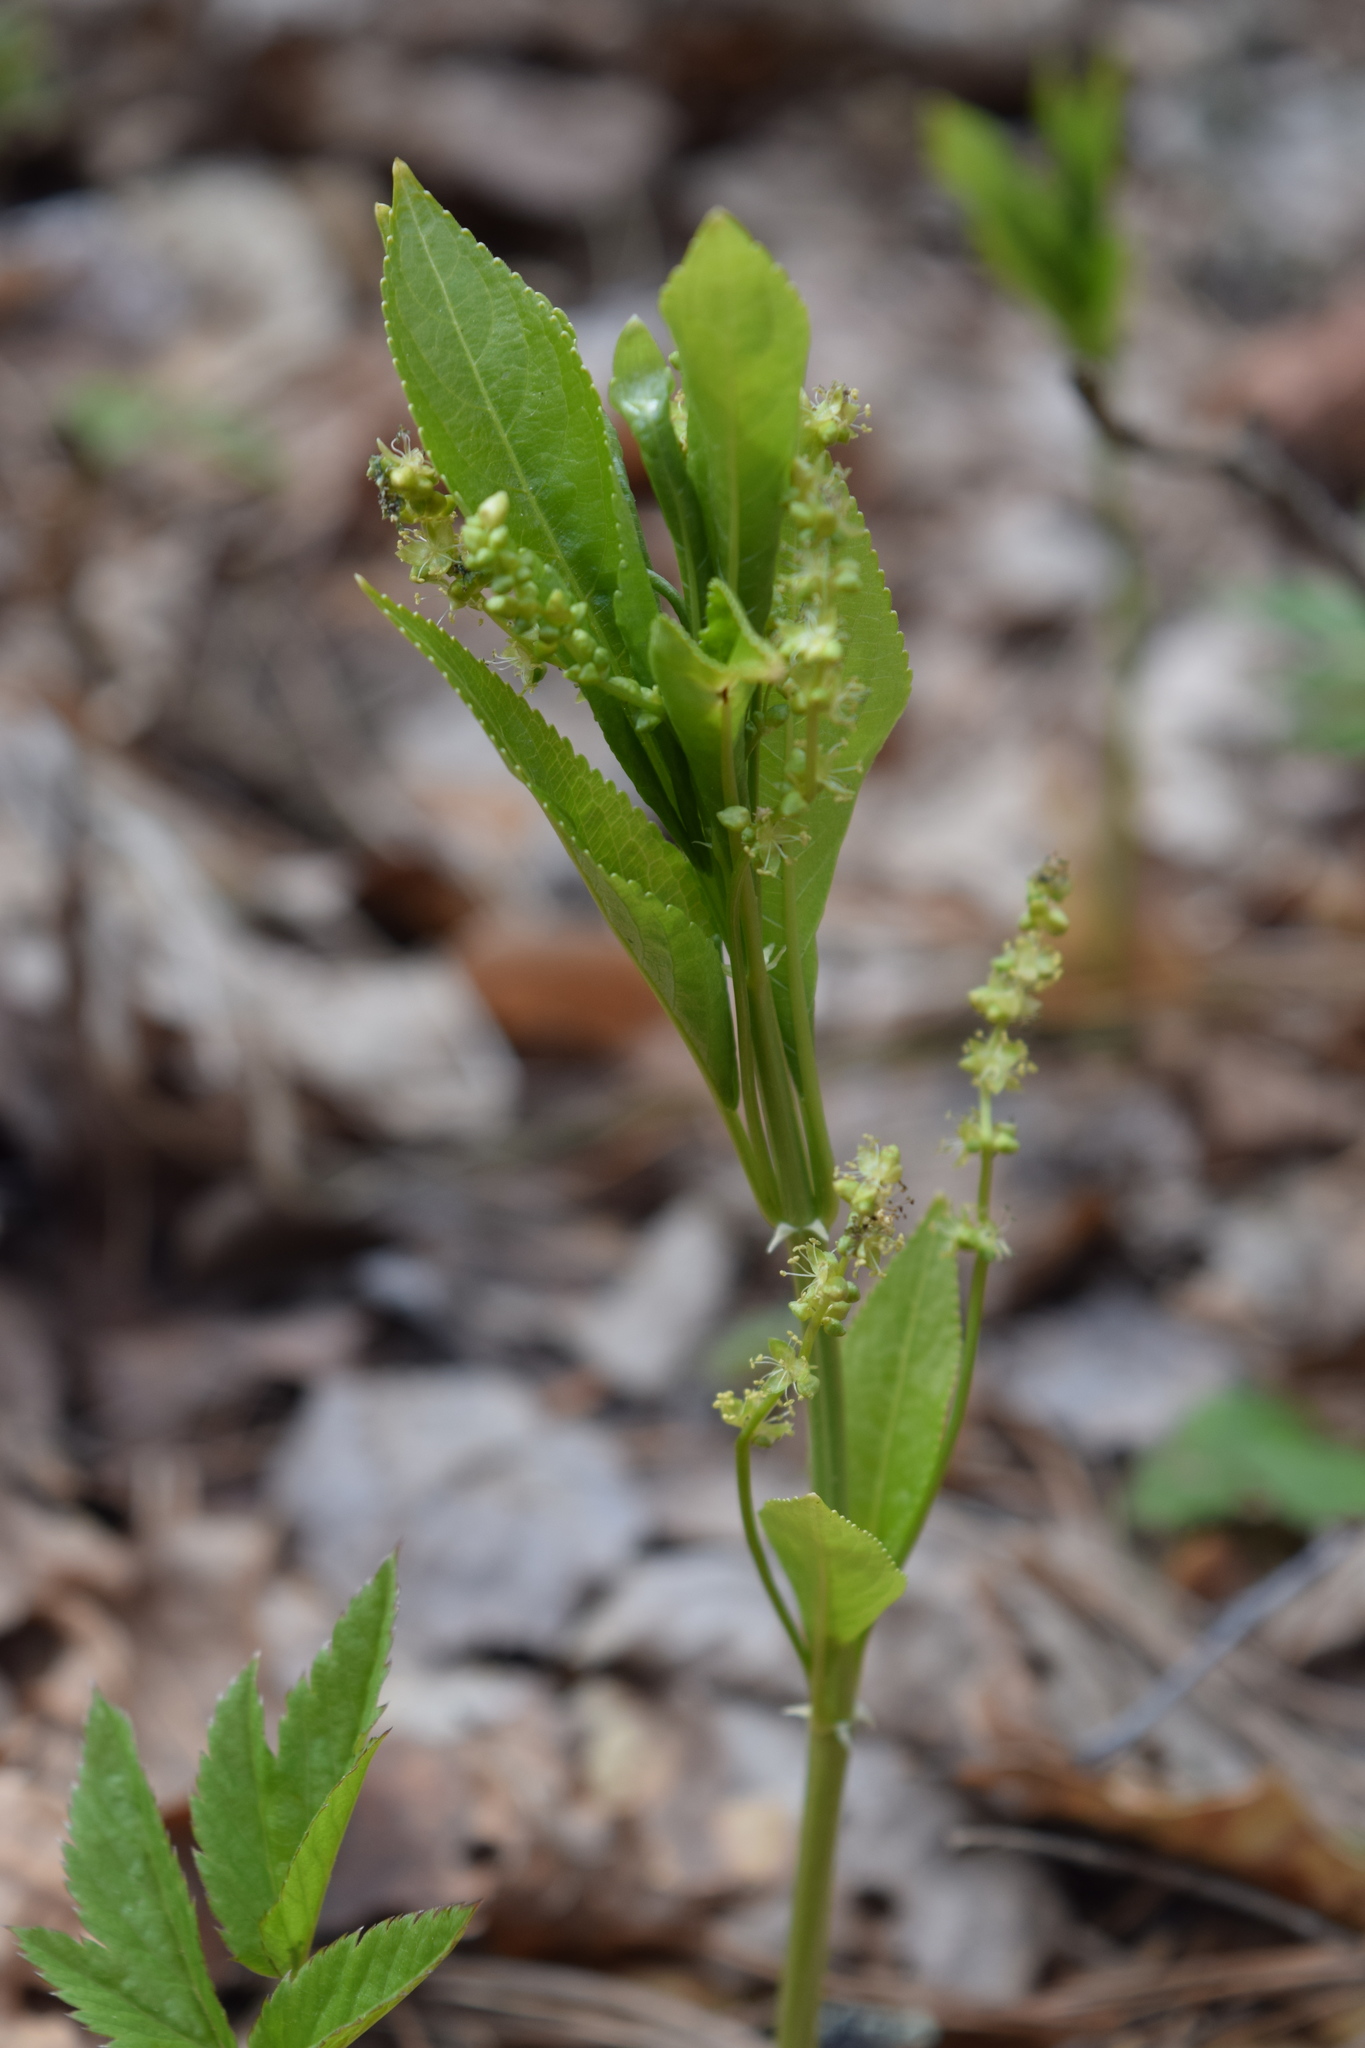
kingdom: Plantae
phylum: Tracheophyta
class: Magnoliopsida
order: Malpighiales
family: Euphorbiaceae
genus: Mercurialis
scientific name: Mercurialis perennis
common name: Dog mercury
